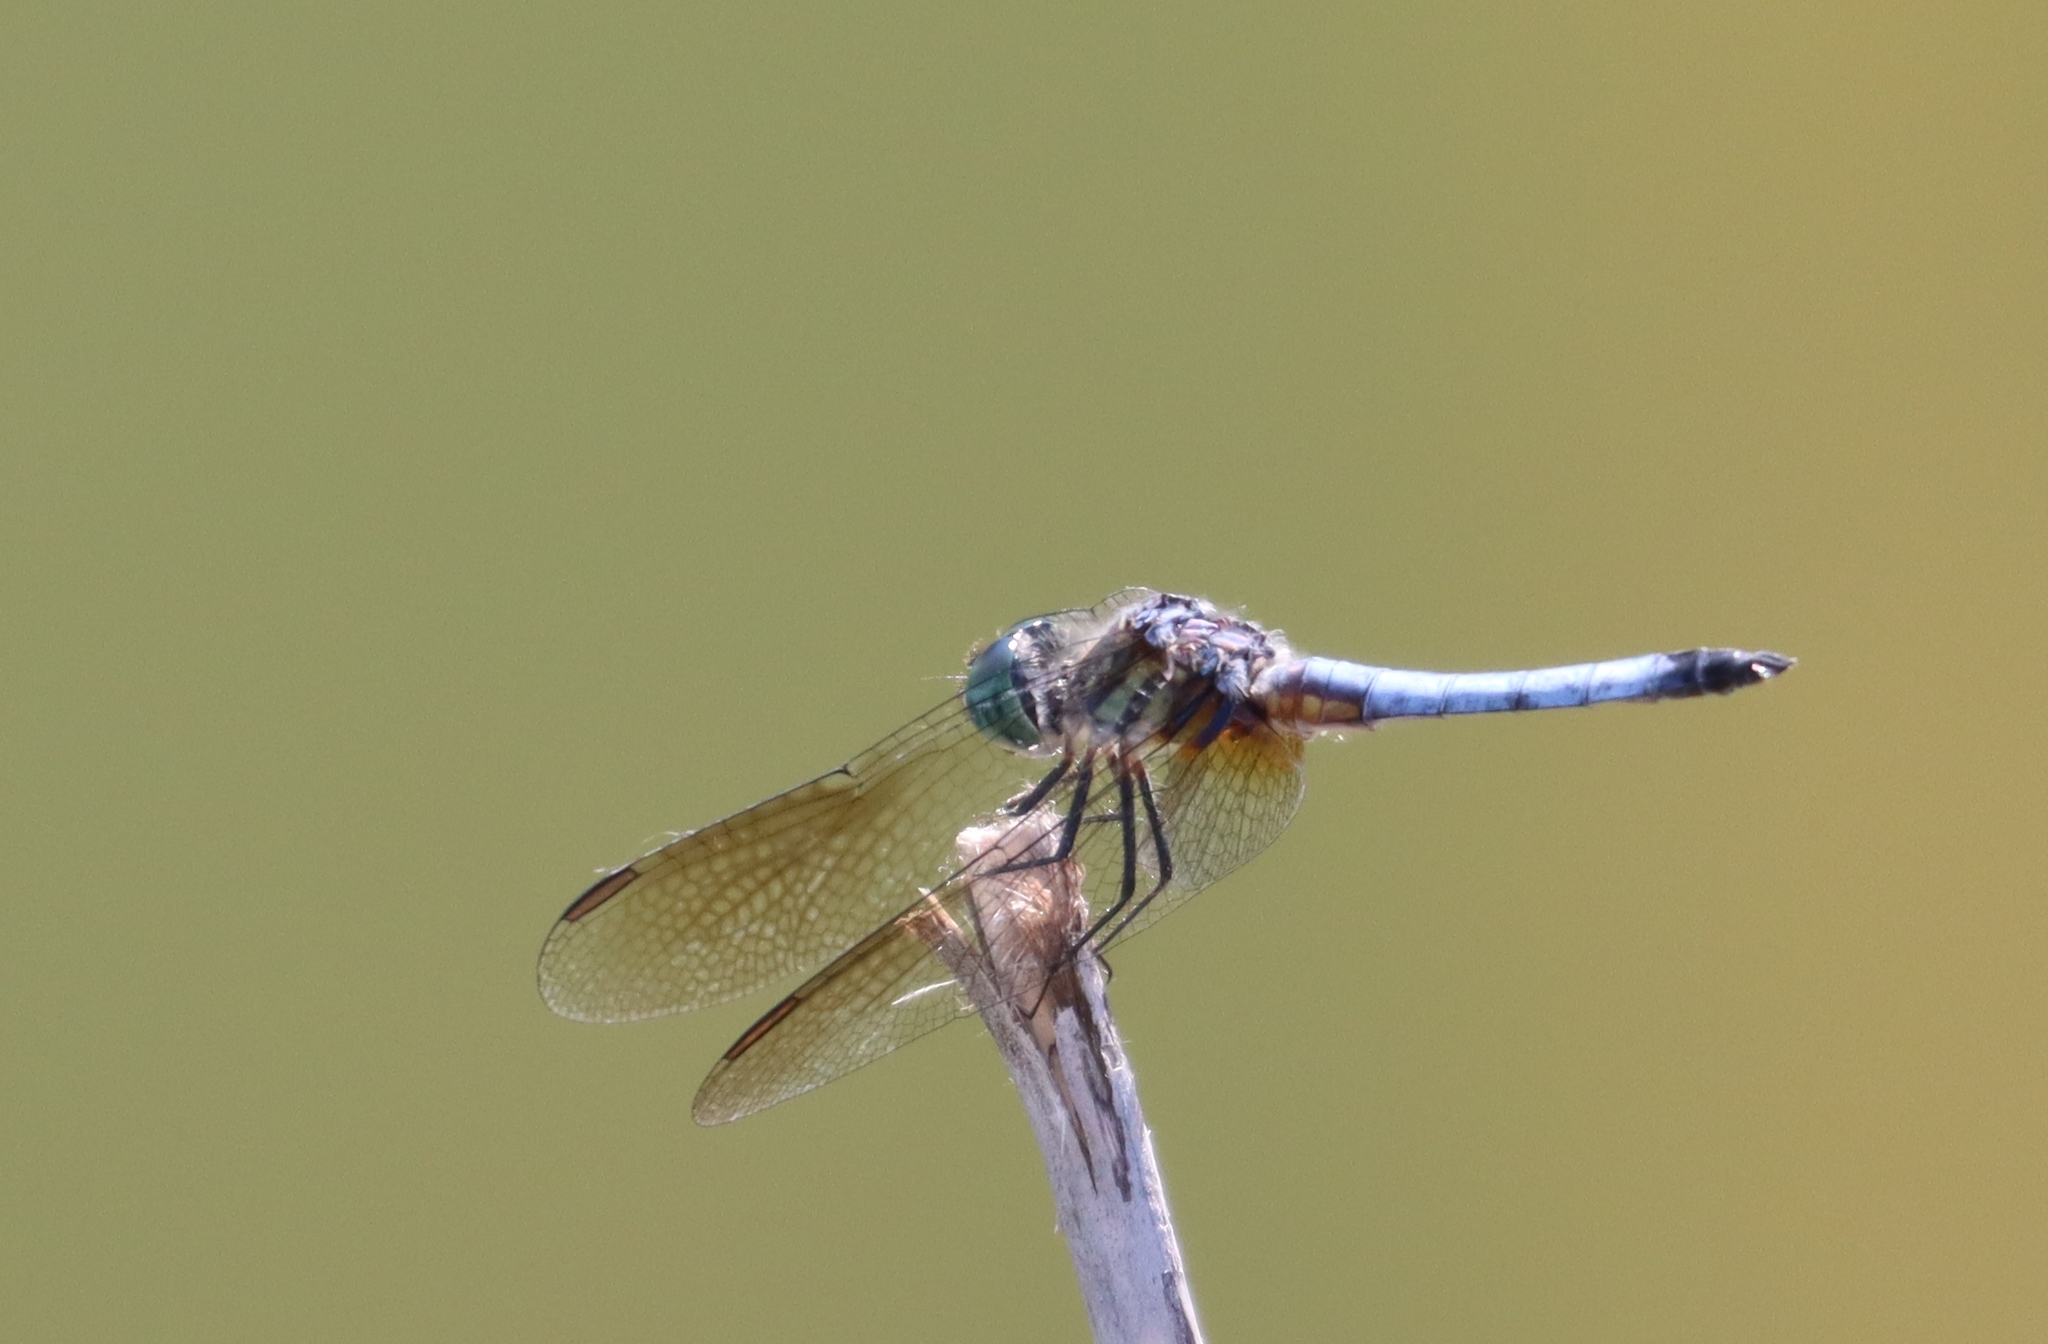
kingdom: Animalia
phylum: Arthropoda
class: Insecta
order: Odonata
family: Libellulidae
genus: Pachydiplax
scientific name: Pachydiplax longipennis
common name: Blue dasher
